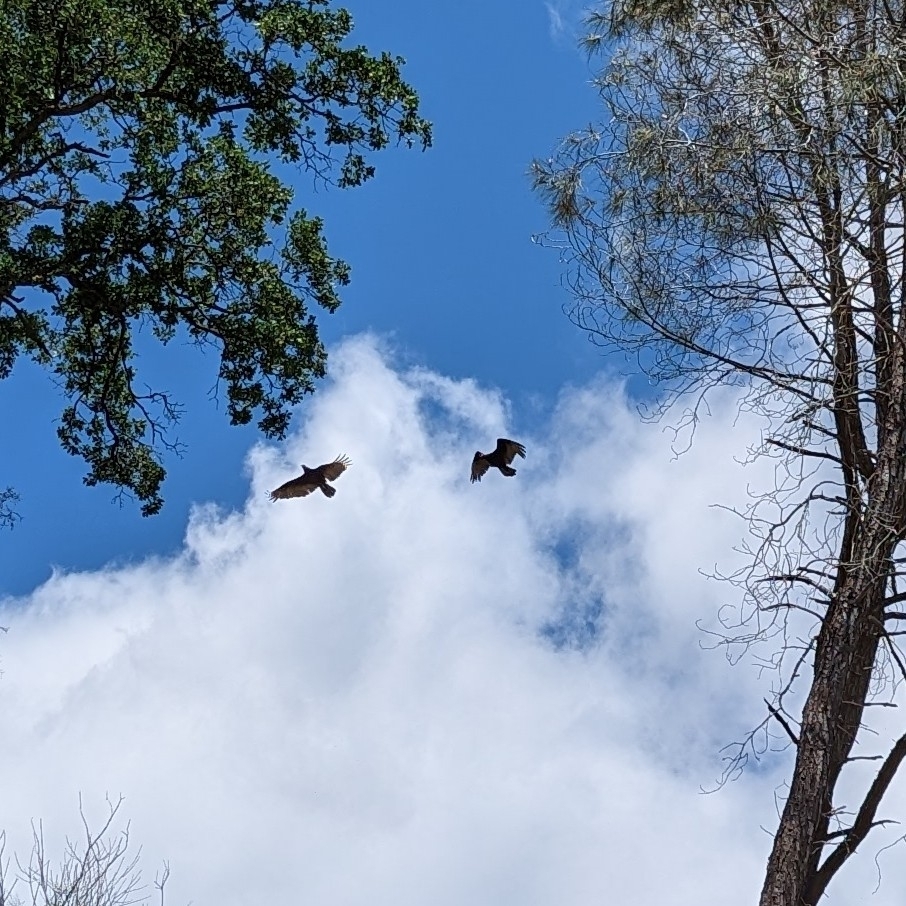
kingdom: Animalia
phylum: Chordata
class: Aves
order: Accipitriformes
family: Cathartidae
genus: Cathartes
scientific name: Cathartes aura
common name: Turkey vulture
